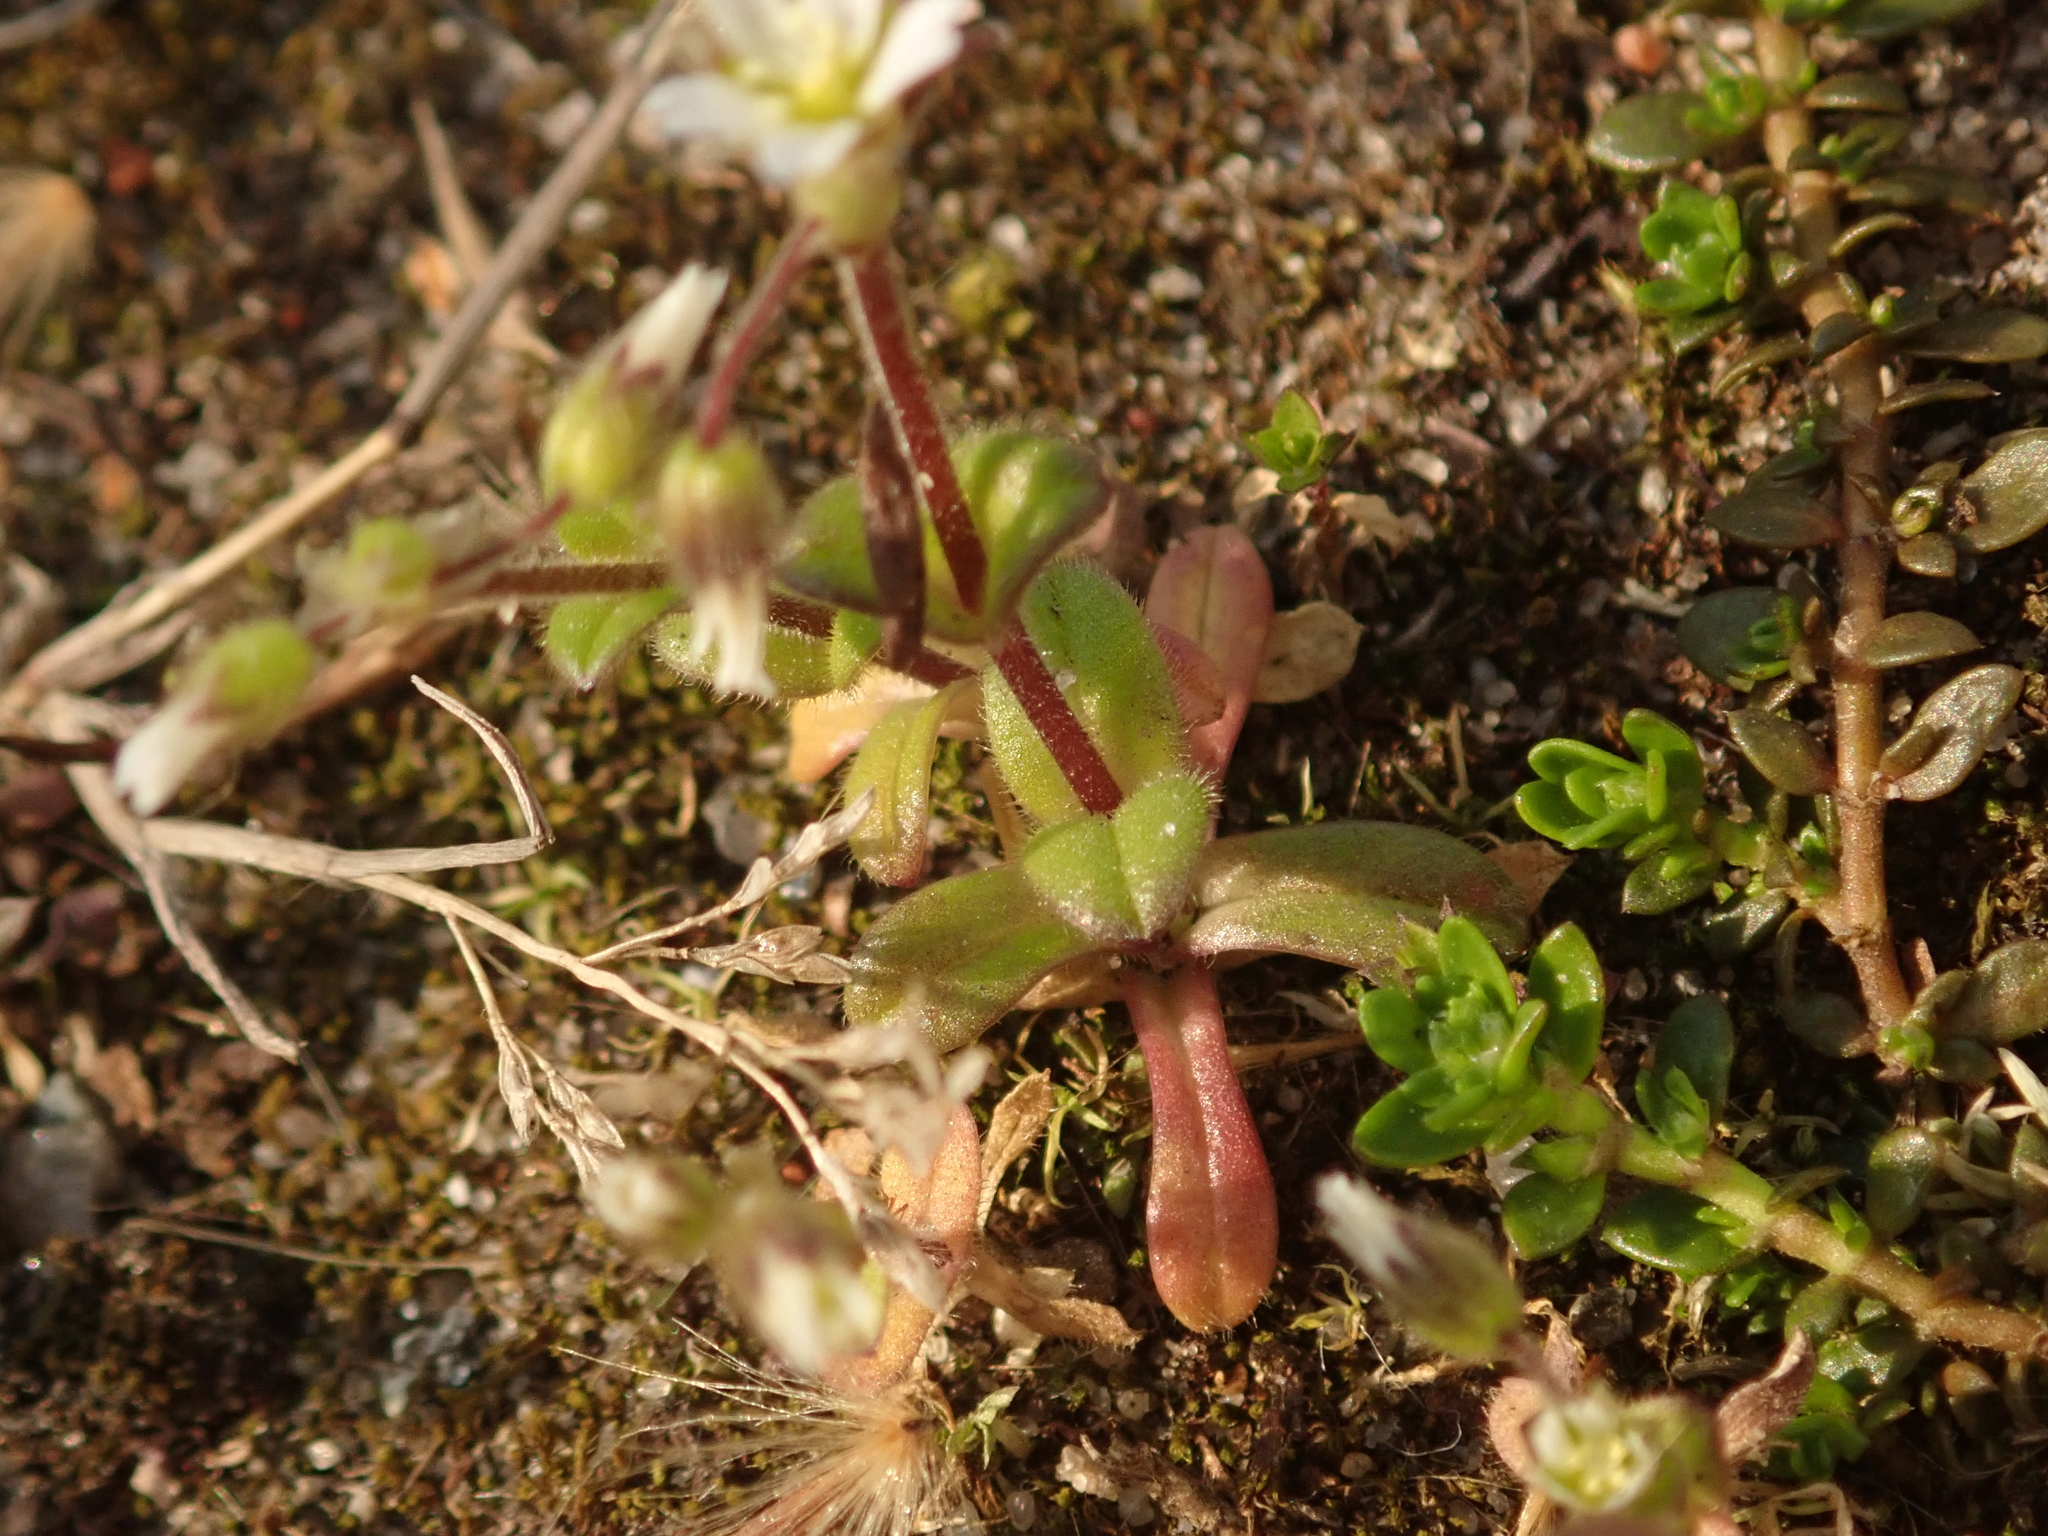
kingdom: Plantae
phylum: Tracheophyta
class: Magnoliopsida
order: Caryophyllales
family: Caryophyllaceae
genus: Cerastium
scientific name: Cerastium semidecandrum
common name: Little mouse-ear
